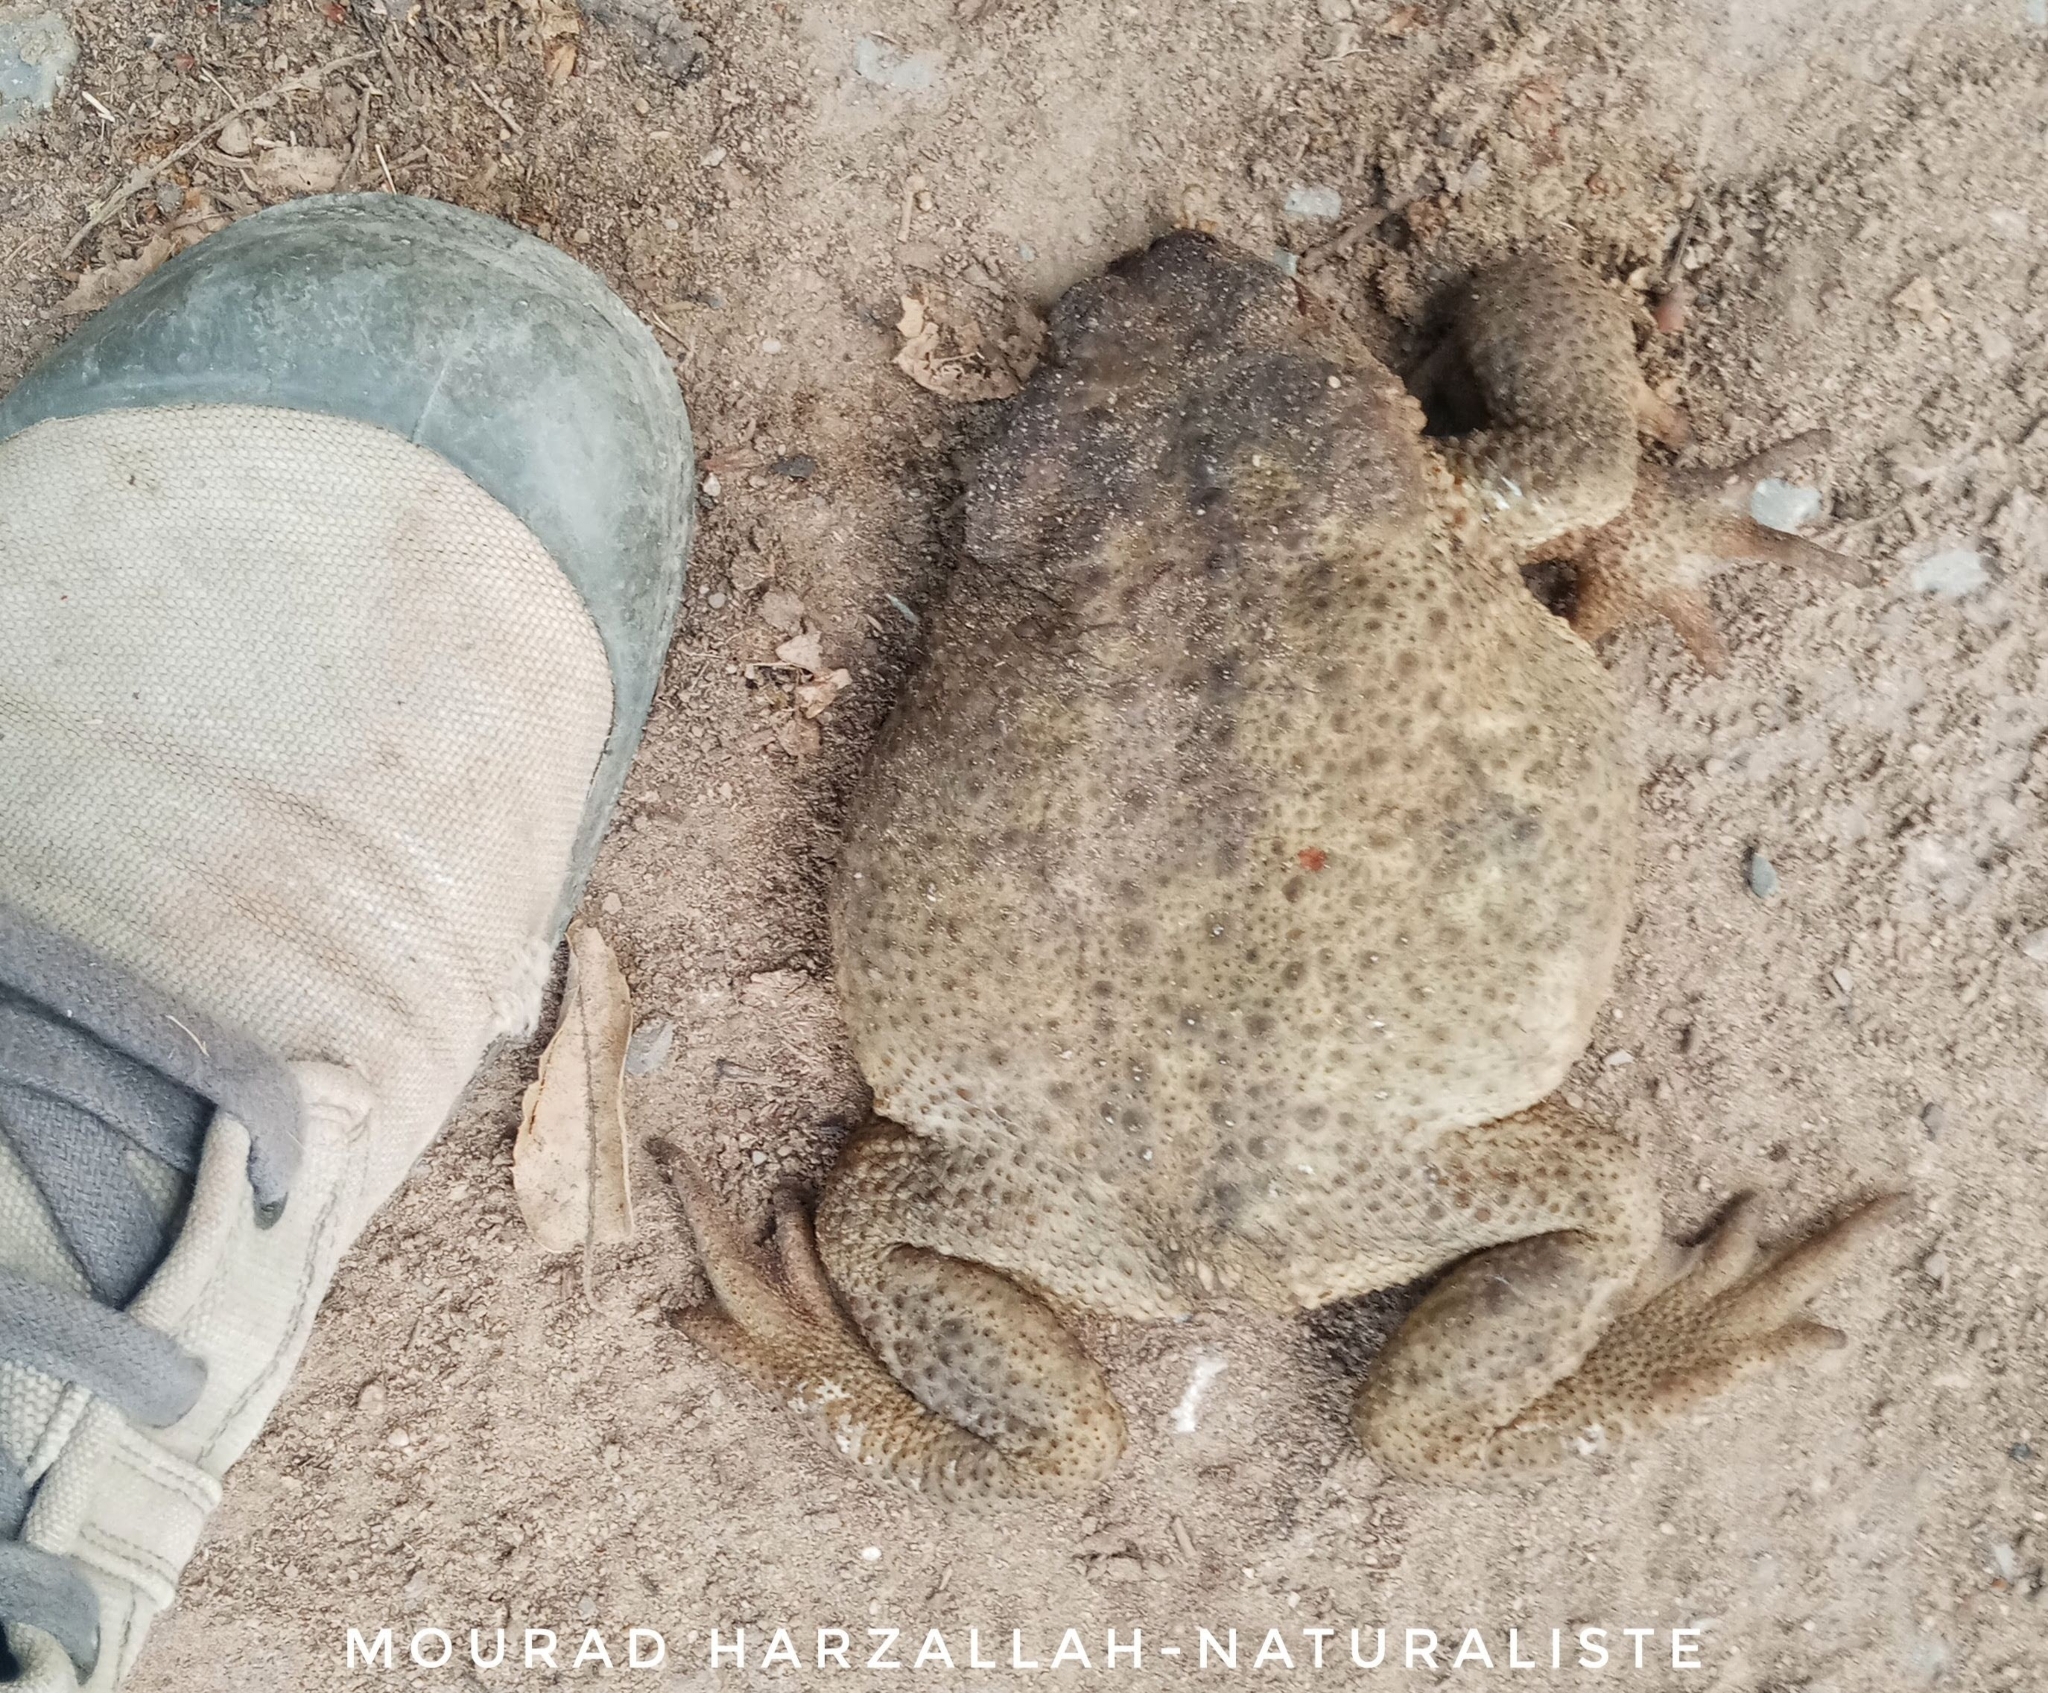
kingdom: Animalia
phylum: Chordata
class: Amphibia
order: Anura
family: Bufonidae
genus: Bufo
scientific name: Bufo spinosus
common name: Western common toad
